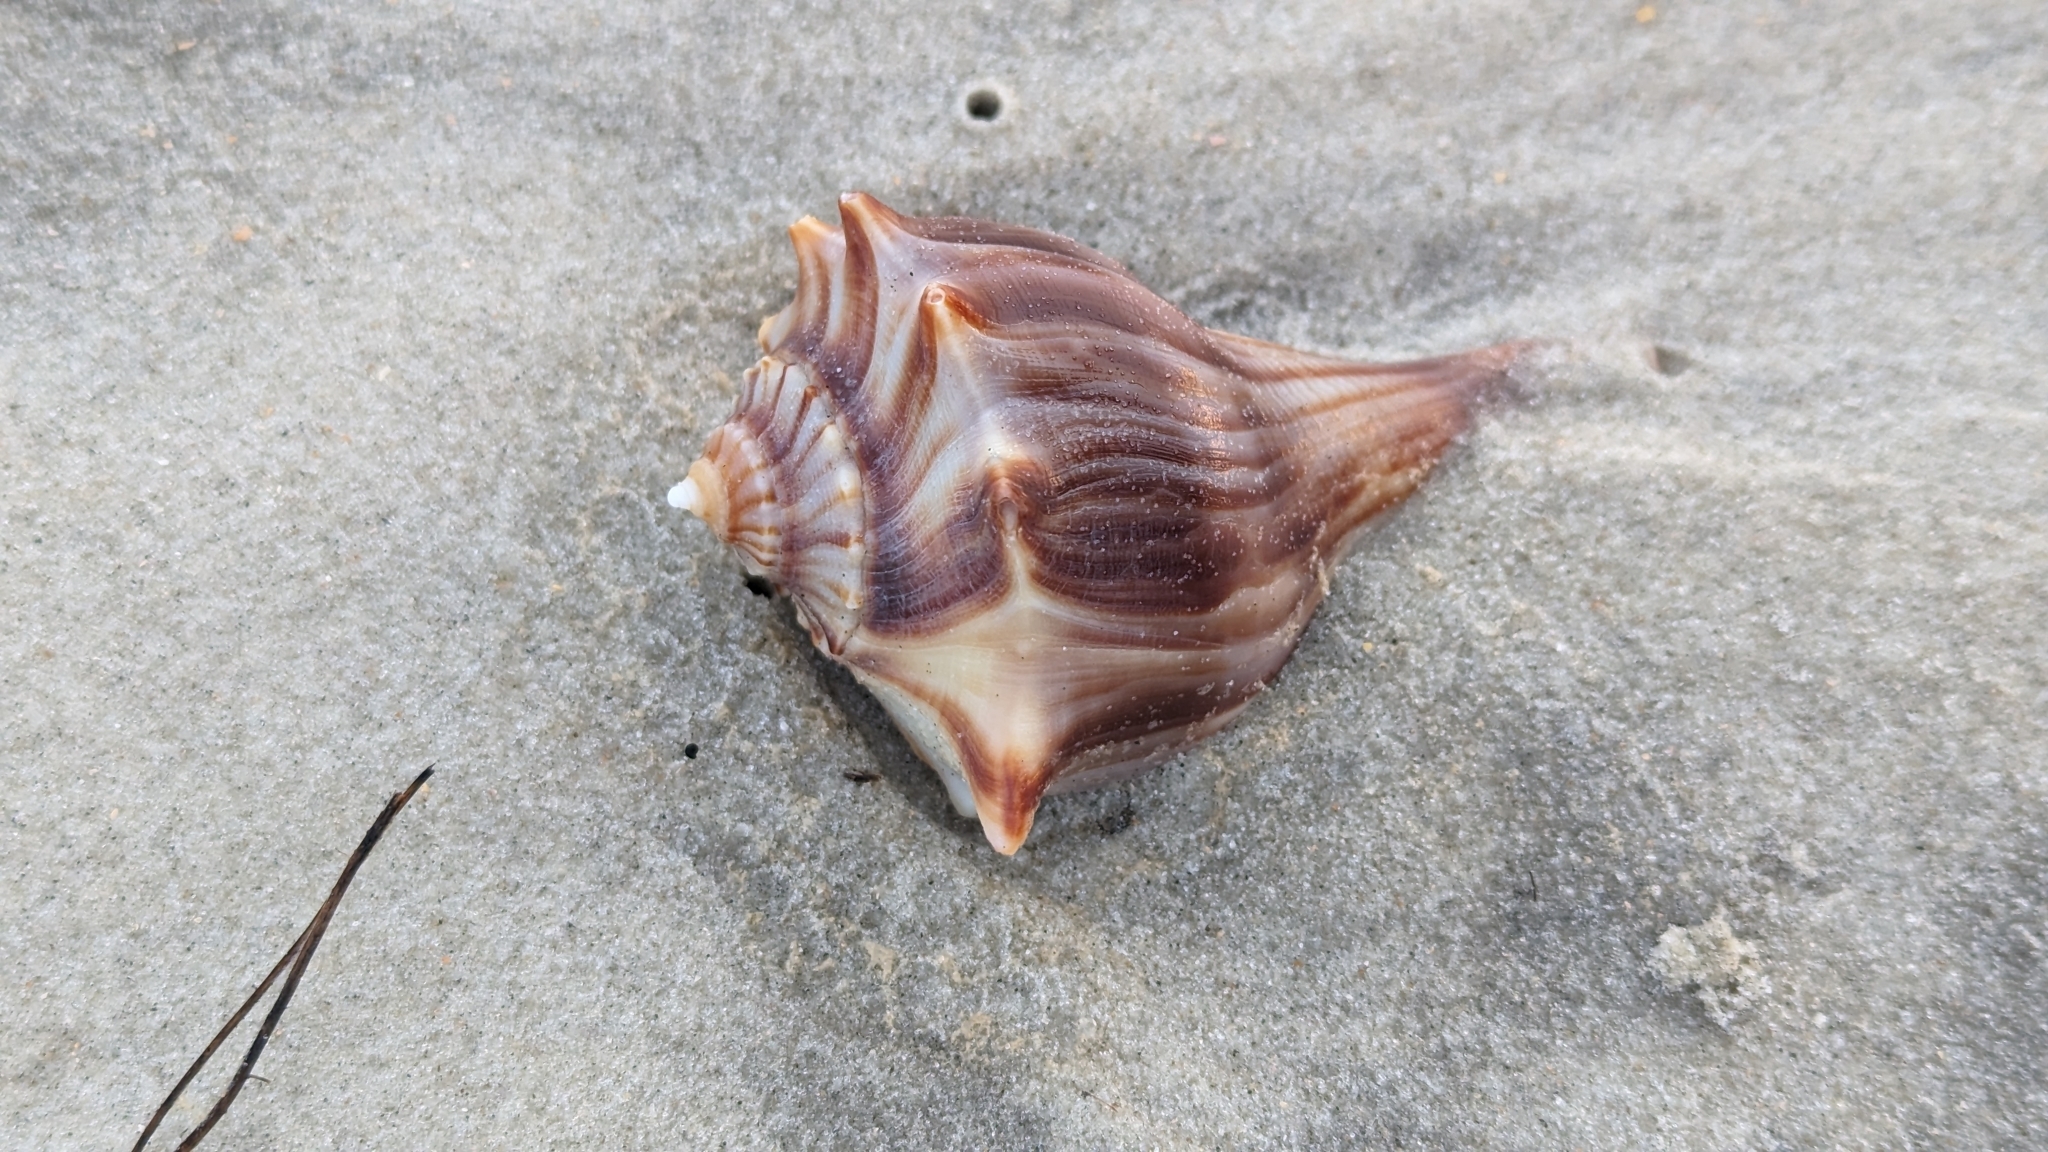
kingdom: Animalia
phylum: Mollusca
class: Gastropoda
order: Neogastropoda
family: Busyconidae
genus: Busycon
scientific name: Busycon carica
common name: Knobbed whelk
